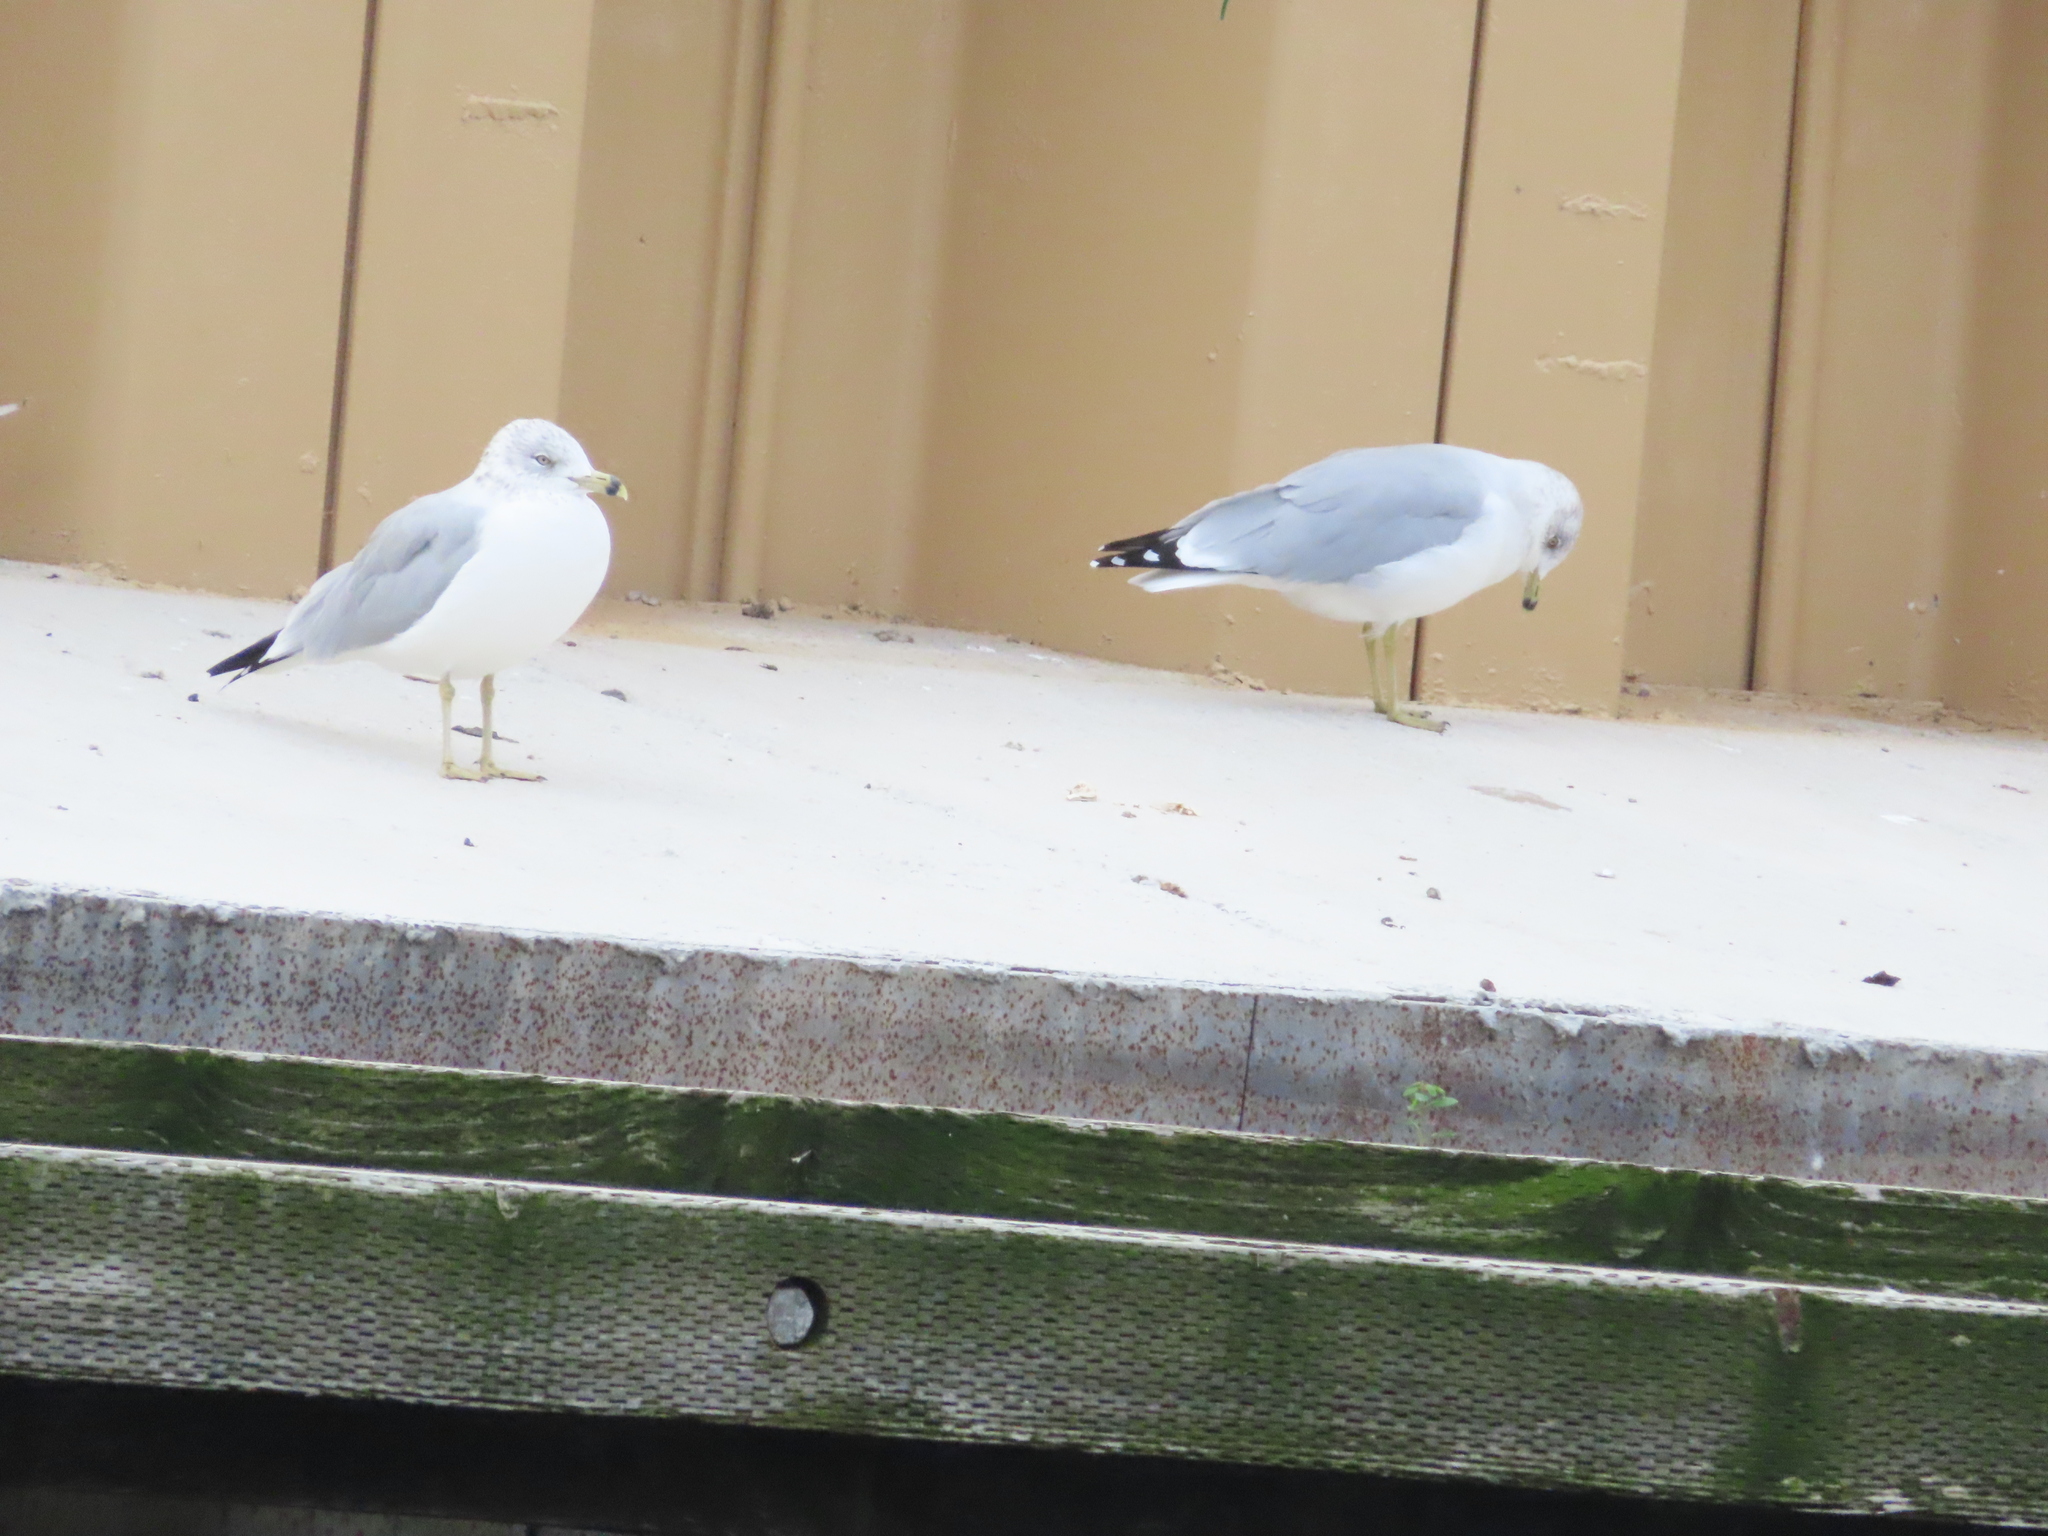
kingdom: Animalia
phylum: Chordata
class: Aves
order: Charadriiformes
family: Laridae
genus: Larus
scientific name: Larus delawarensis
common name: Ring-billed gull
